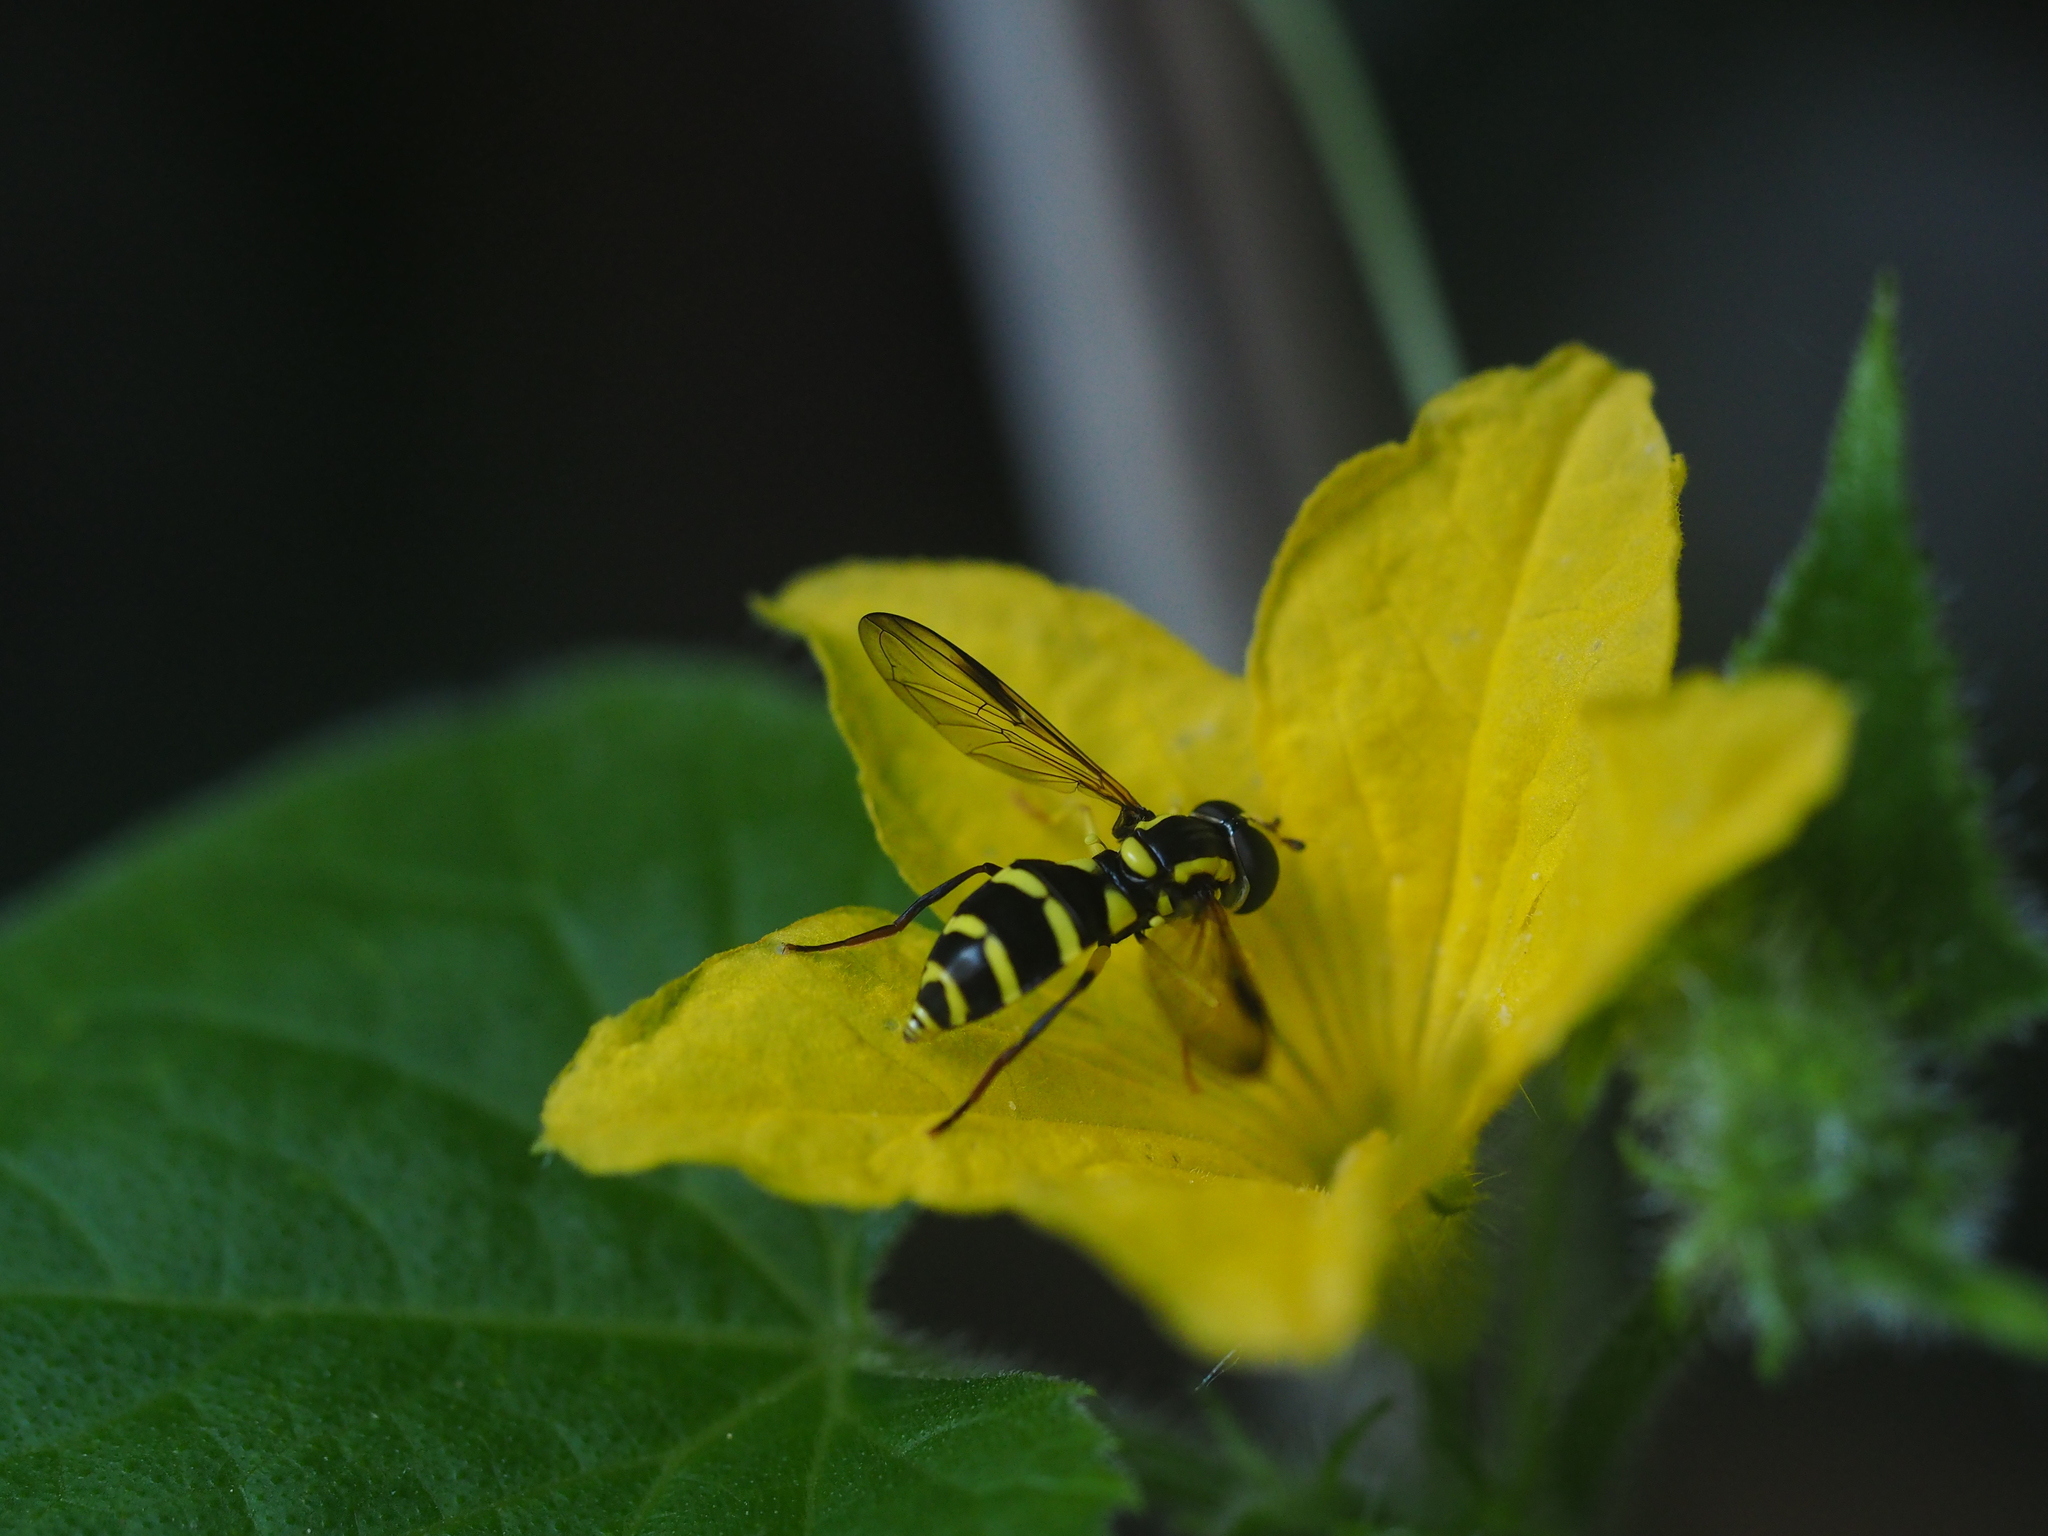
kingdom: Animalia
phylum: Arthropoda
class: Insecta
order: Diptera
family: Syrphidae
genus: Philhelius
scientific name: Philhelius dives
